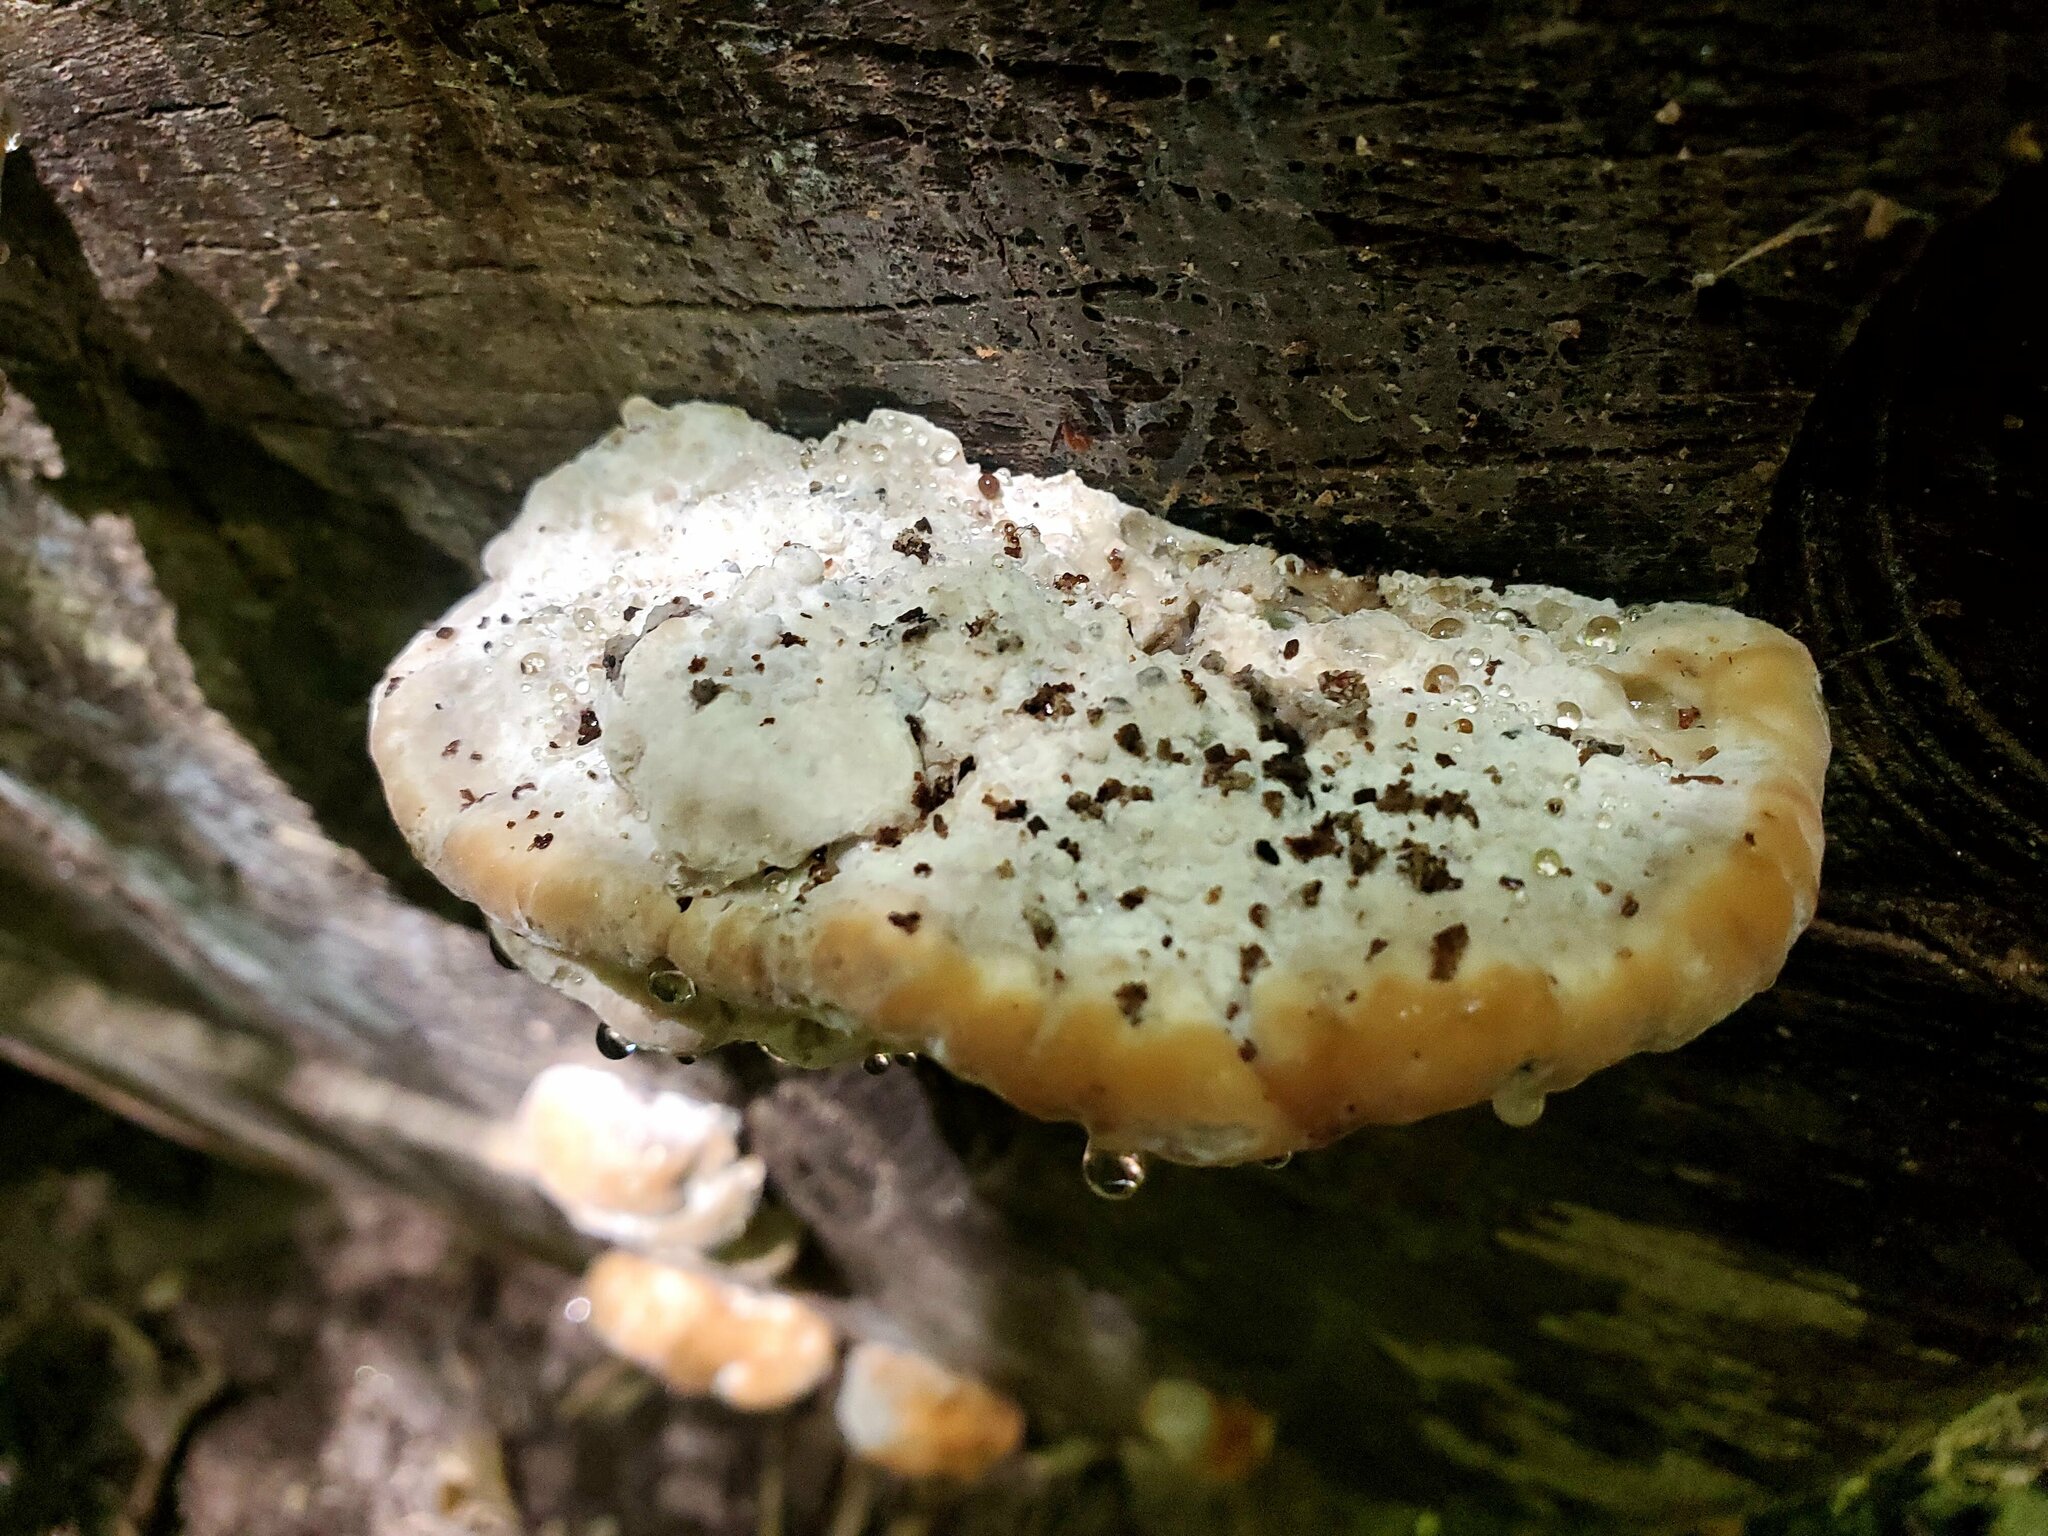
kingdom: Fungi
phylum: Basidiomycota
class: Agaricomycetes
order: Polyporales
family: Fomitopsidaceae
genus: Niveoporofomes
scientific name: Niveoporofomes spraguei
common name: Green cheese polypore
